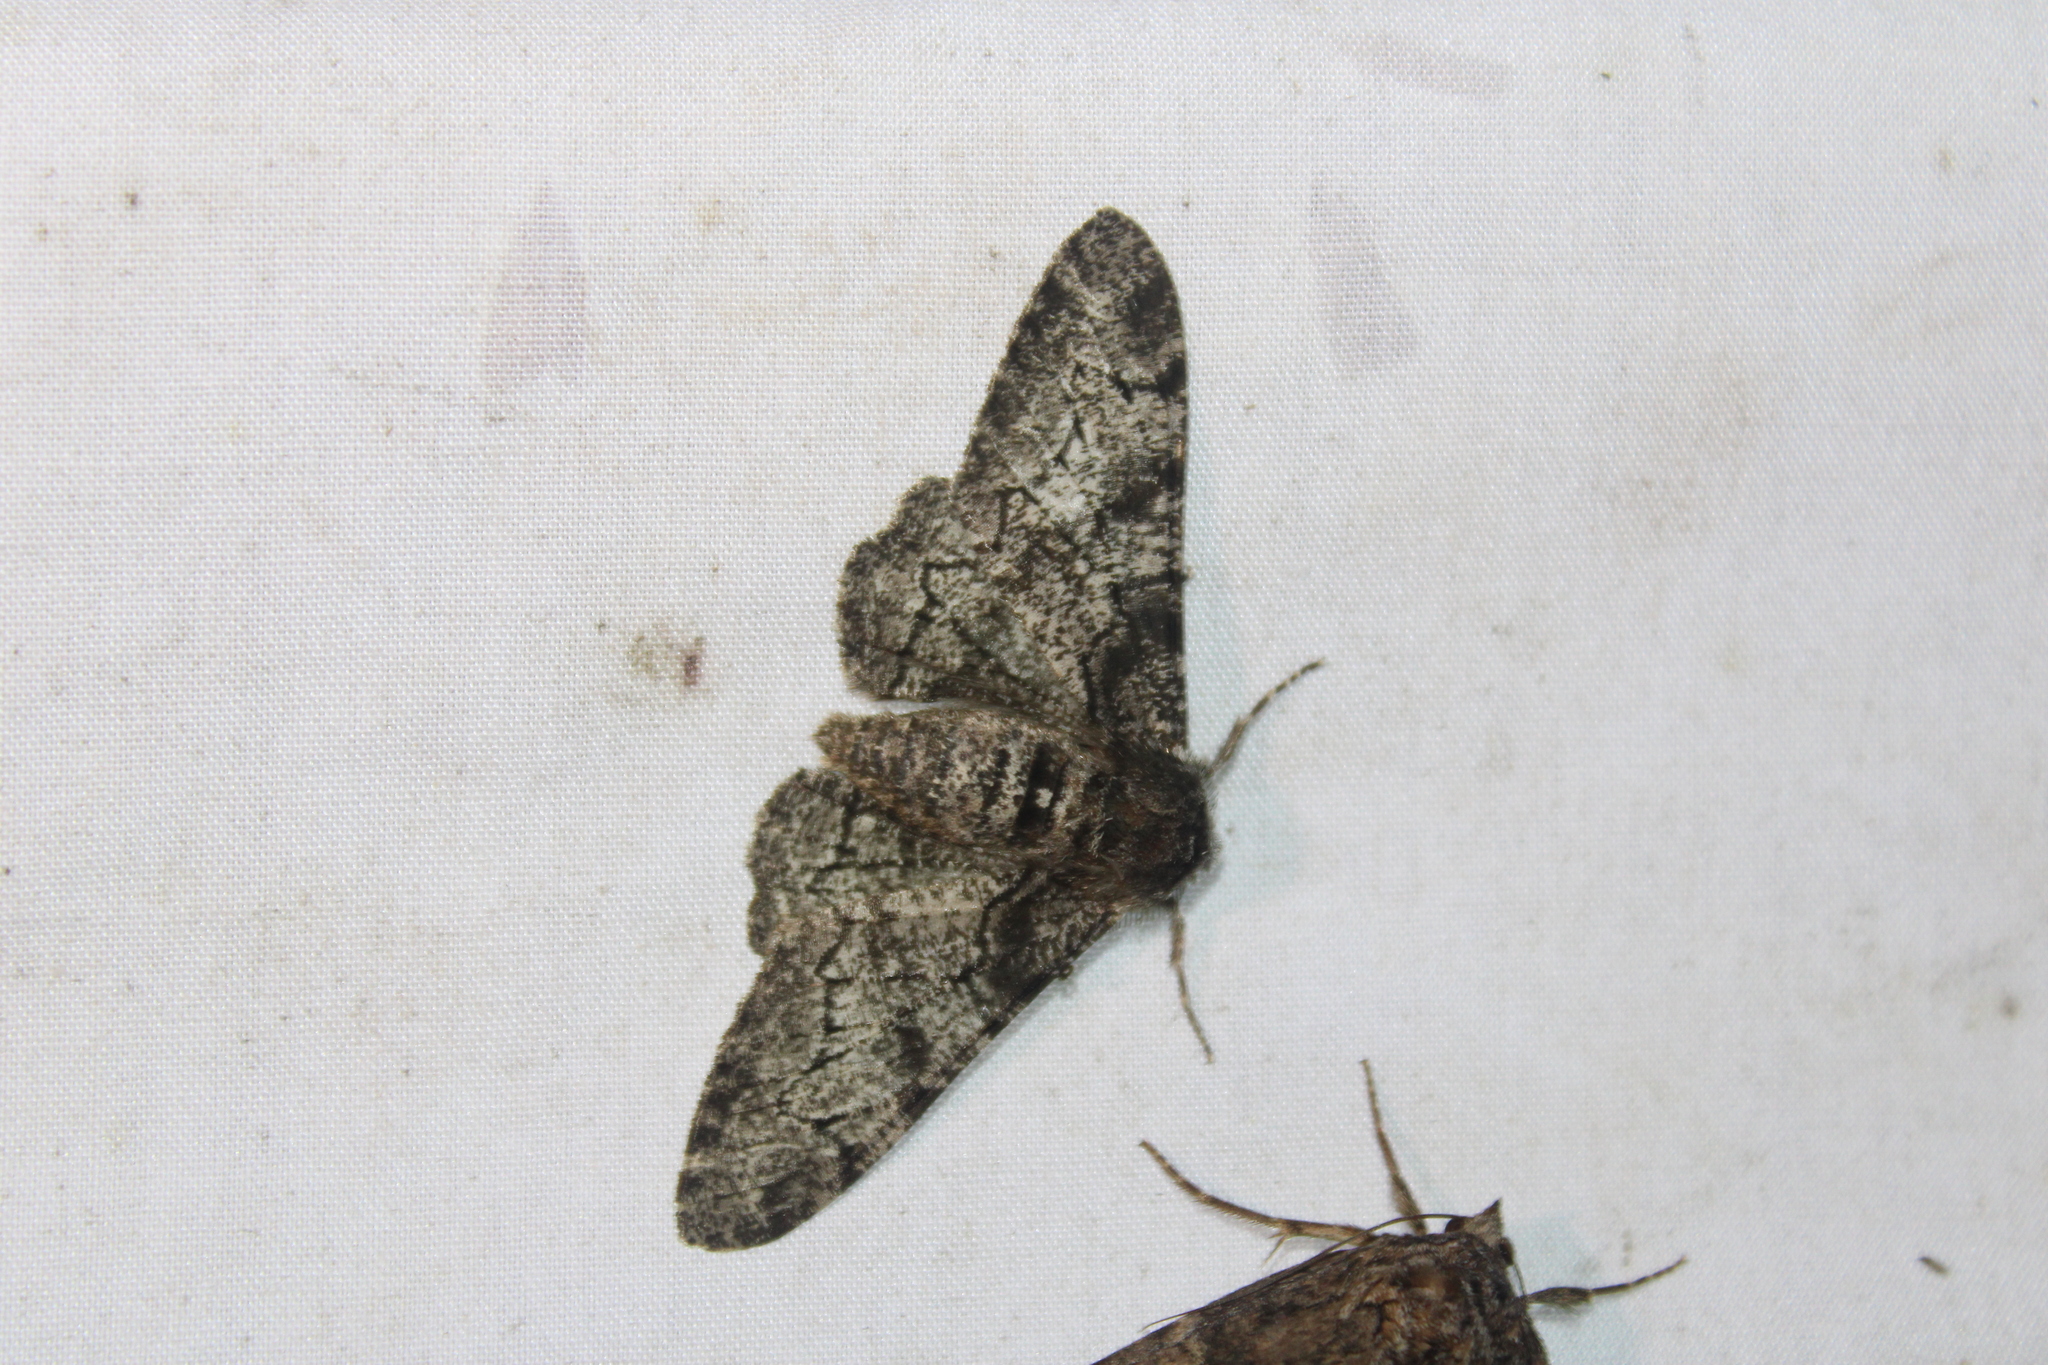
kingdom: Animalia
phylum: Arthropoda
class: Insecta
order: Lepidoptera
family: Geometridae
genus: Biston
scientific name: Biston betularia
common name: Peppered moth
